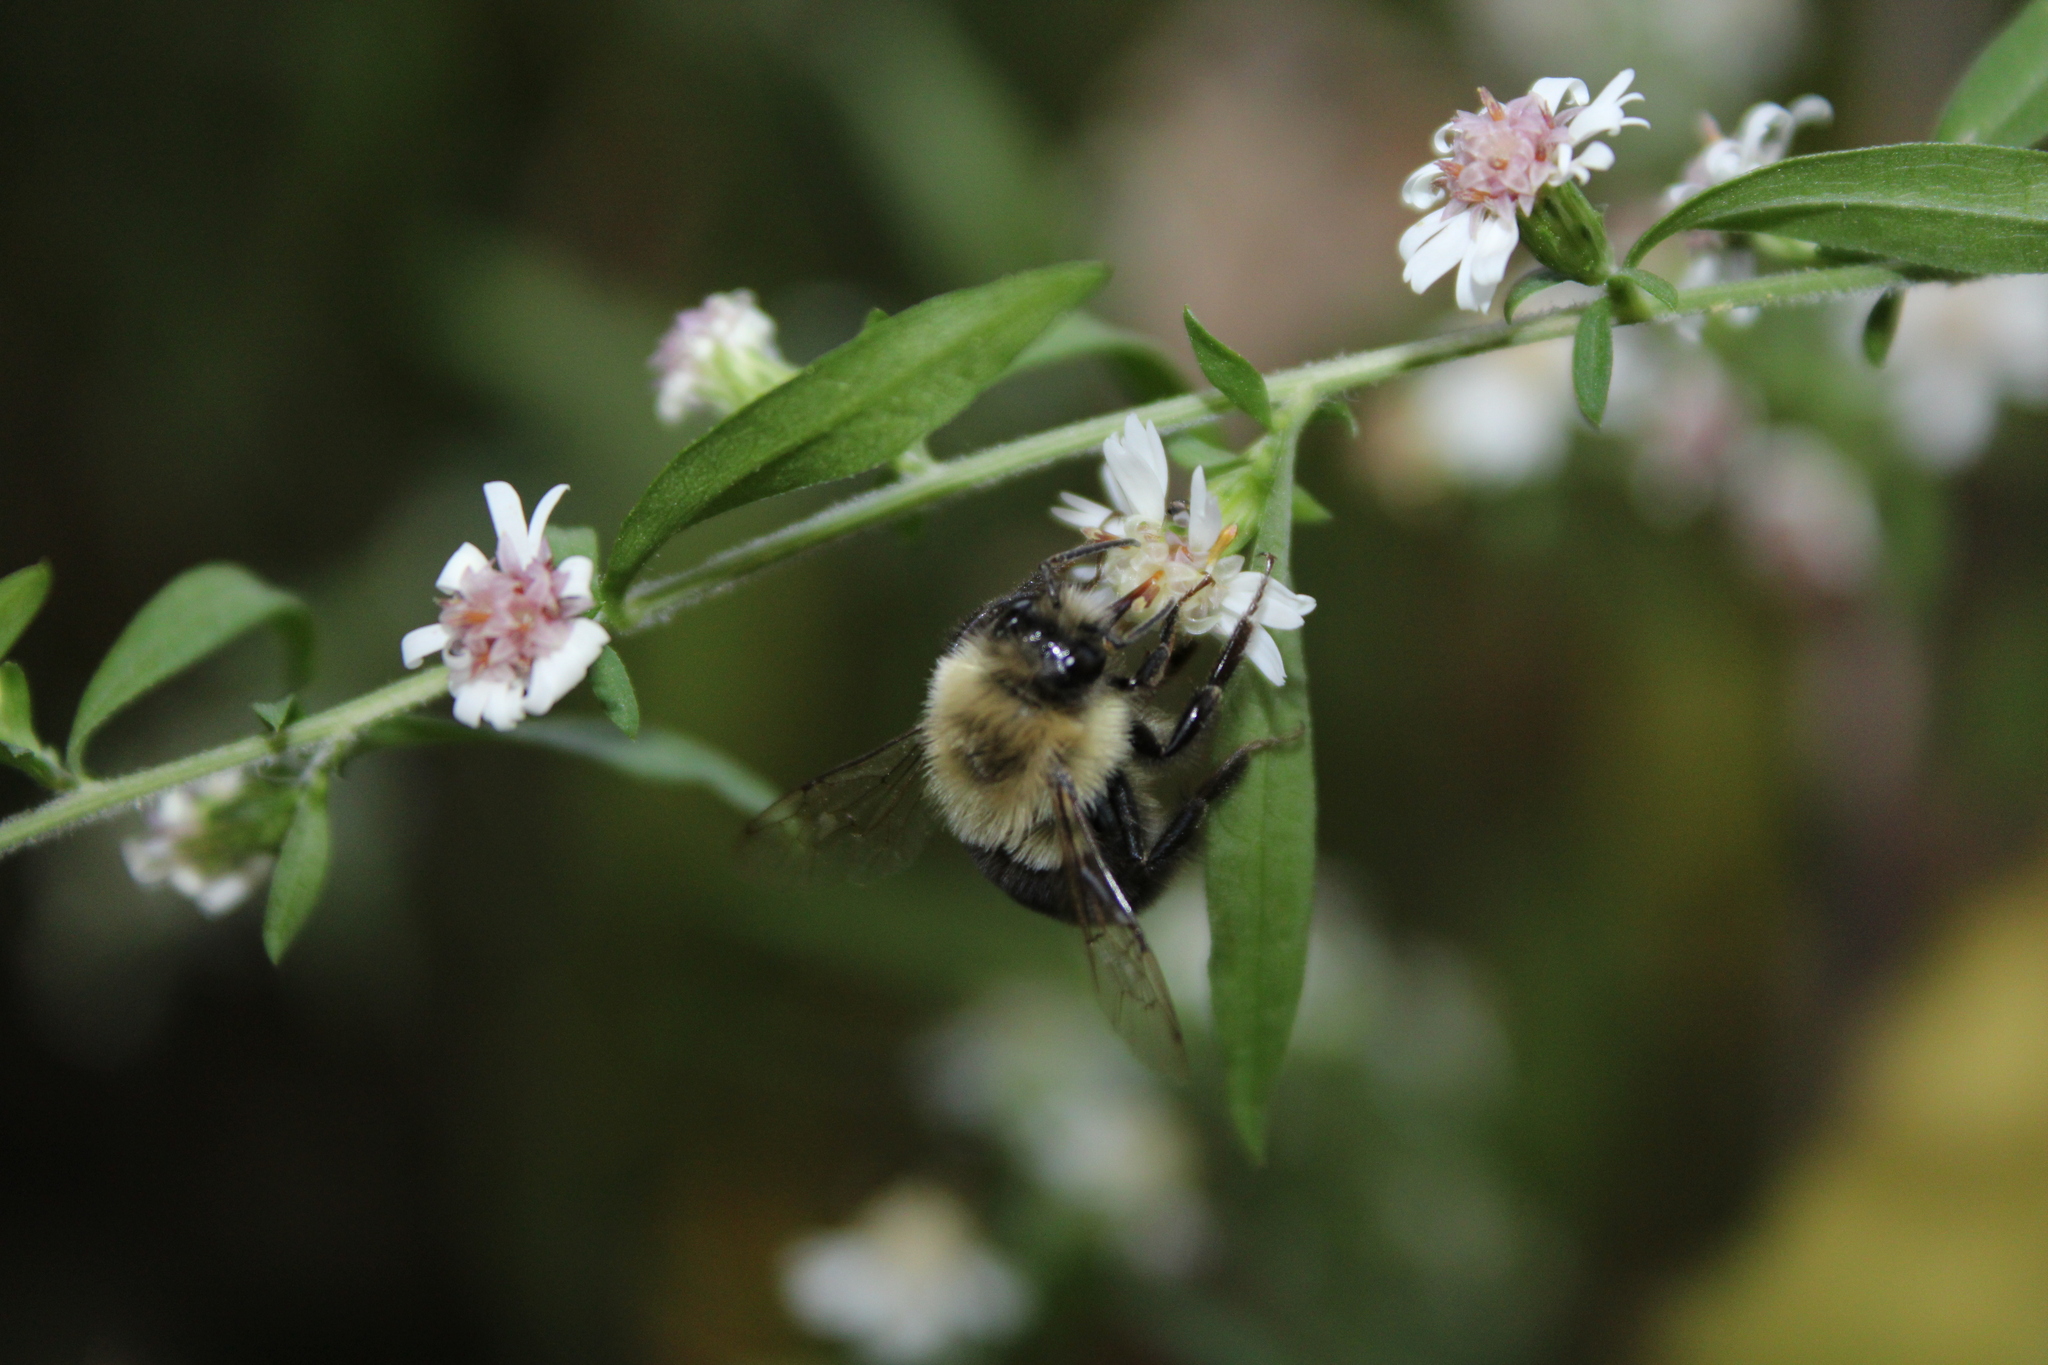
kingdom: Animalia
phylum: Arthropoda
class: Insecta
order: Hymenoptera
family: Apidae
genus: Bombus
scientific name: Bombus impatiens
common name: Common eastern bumble bee
